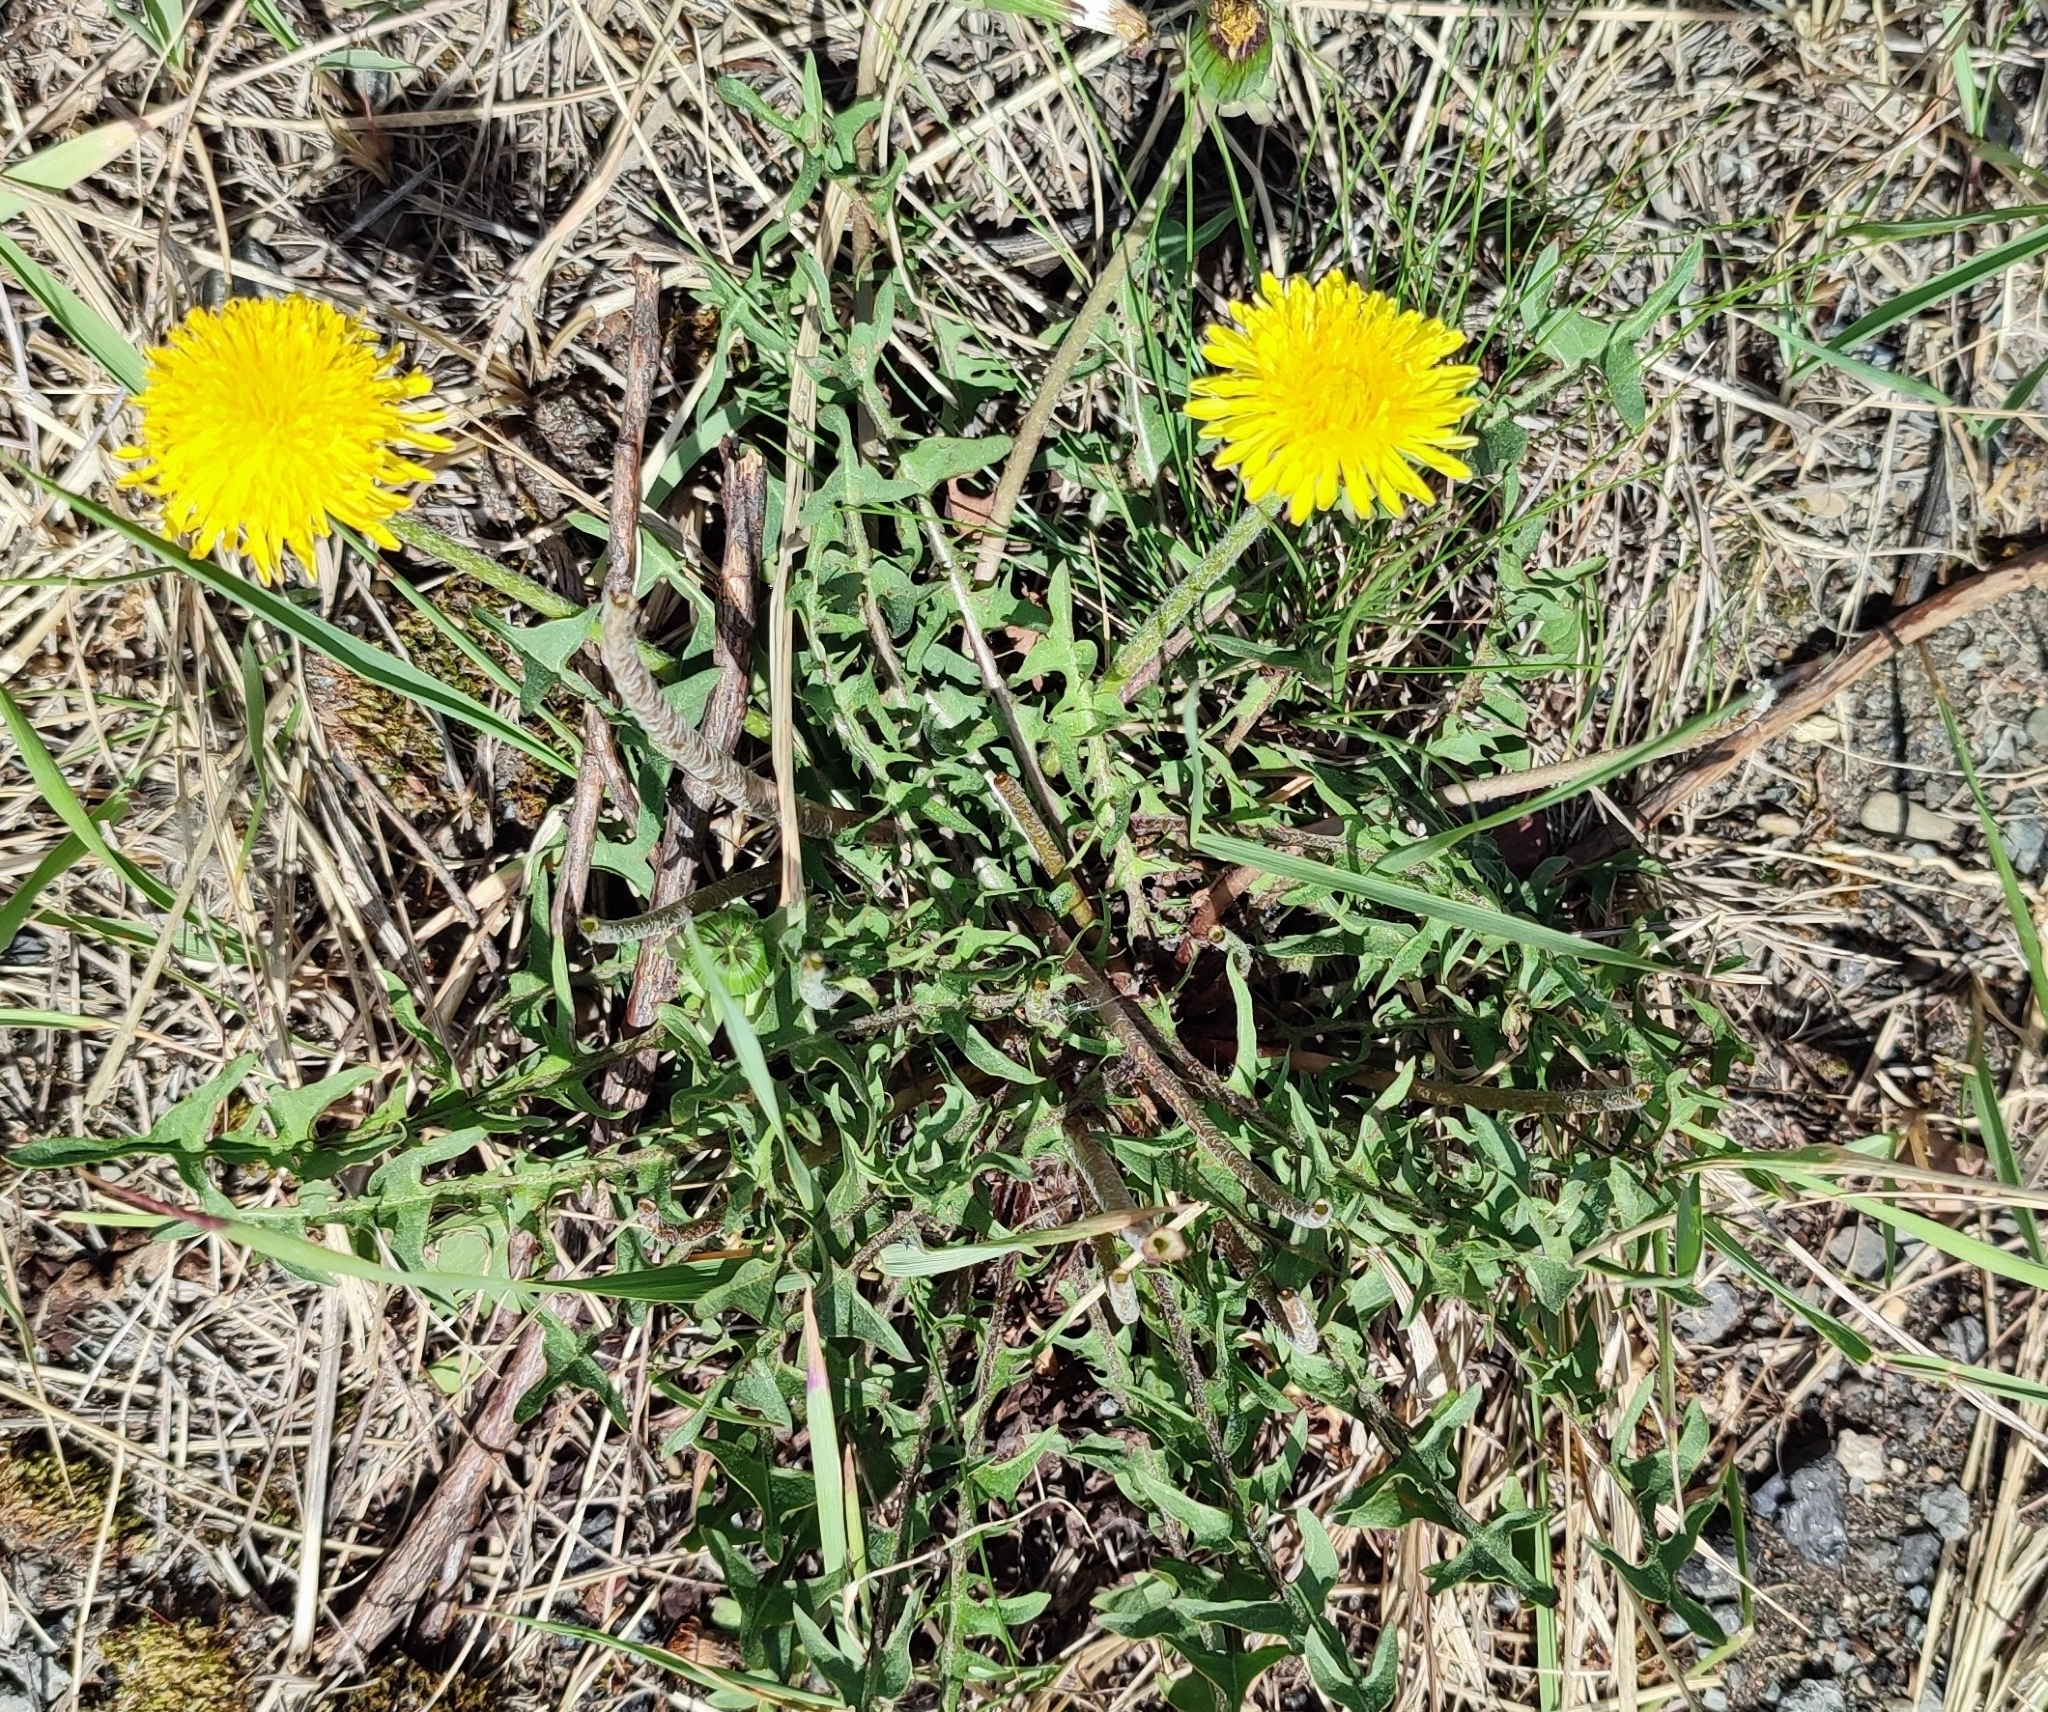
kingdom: Plantae
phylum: Tracheophyta
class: Magnoliopsida
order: Asterales
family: Asteraceae
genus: Taraxacum
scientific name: Taraxacum officinale
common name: Common dandelion
